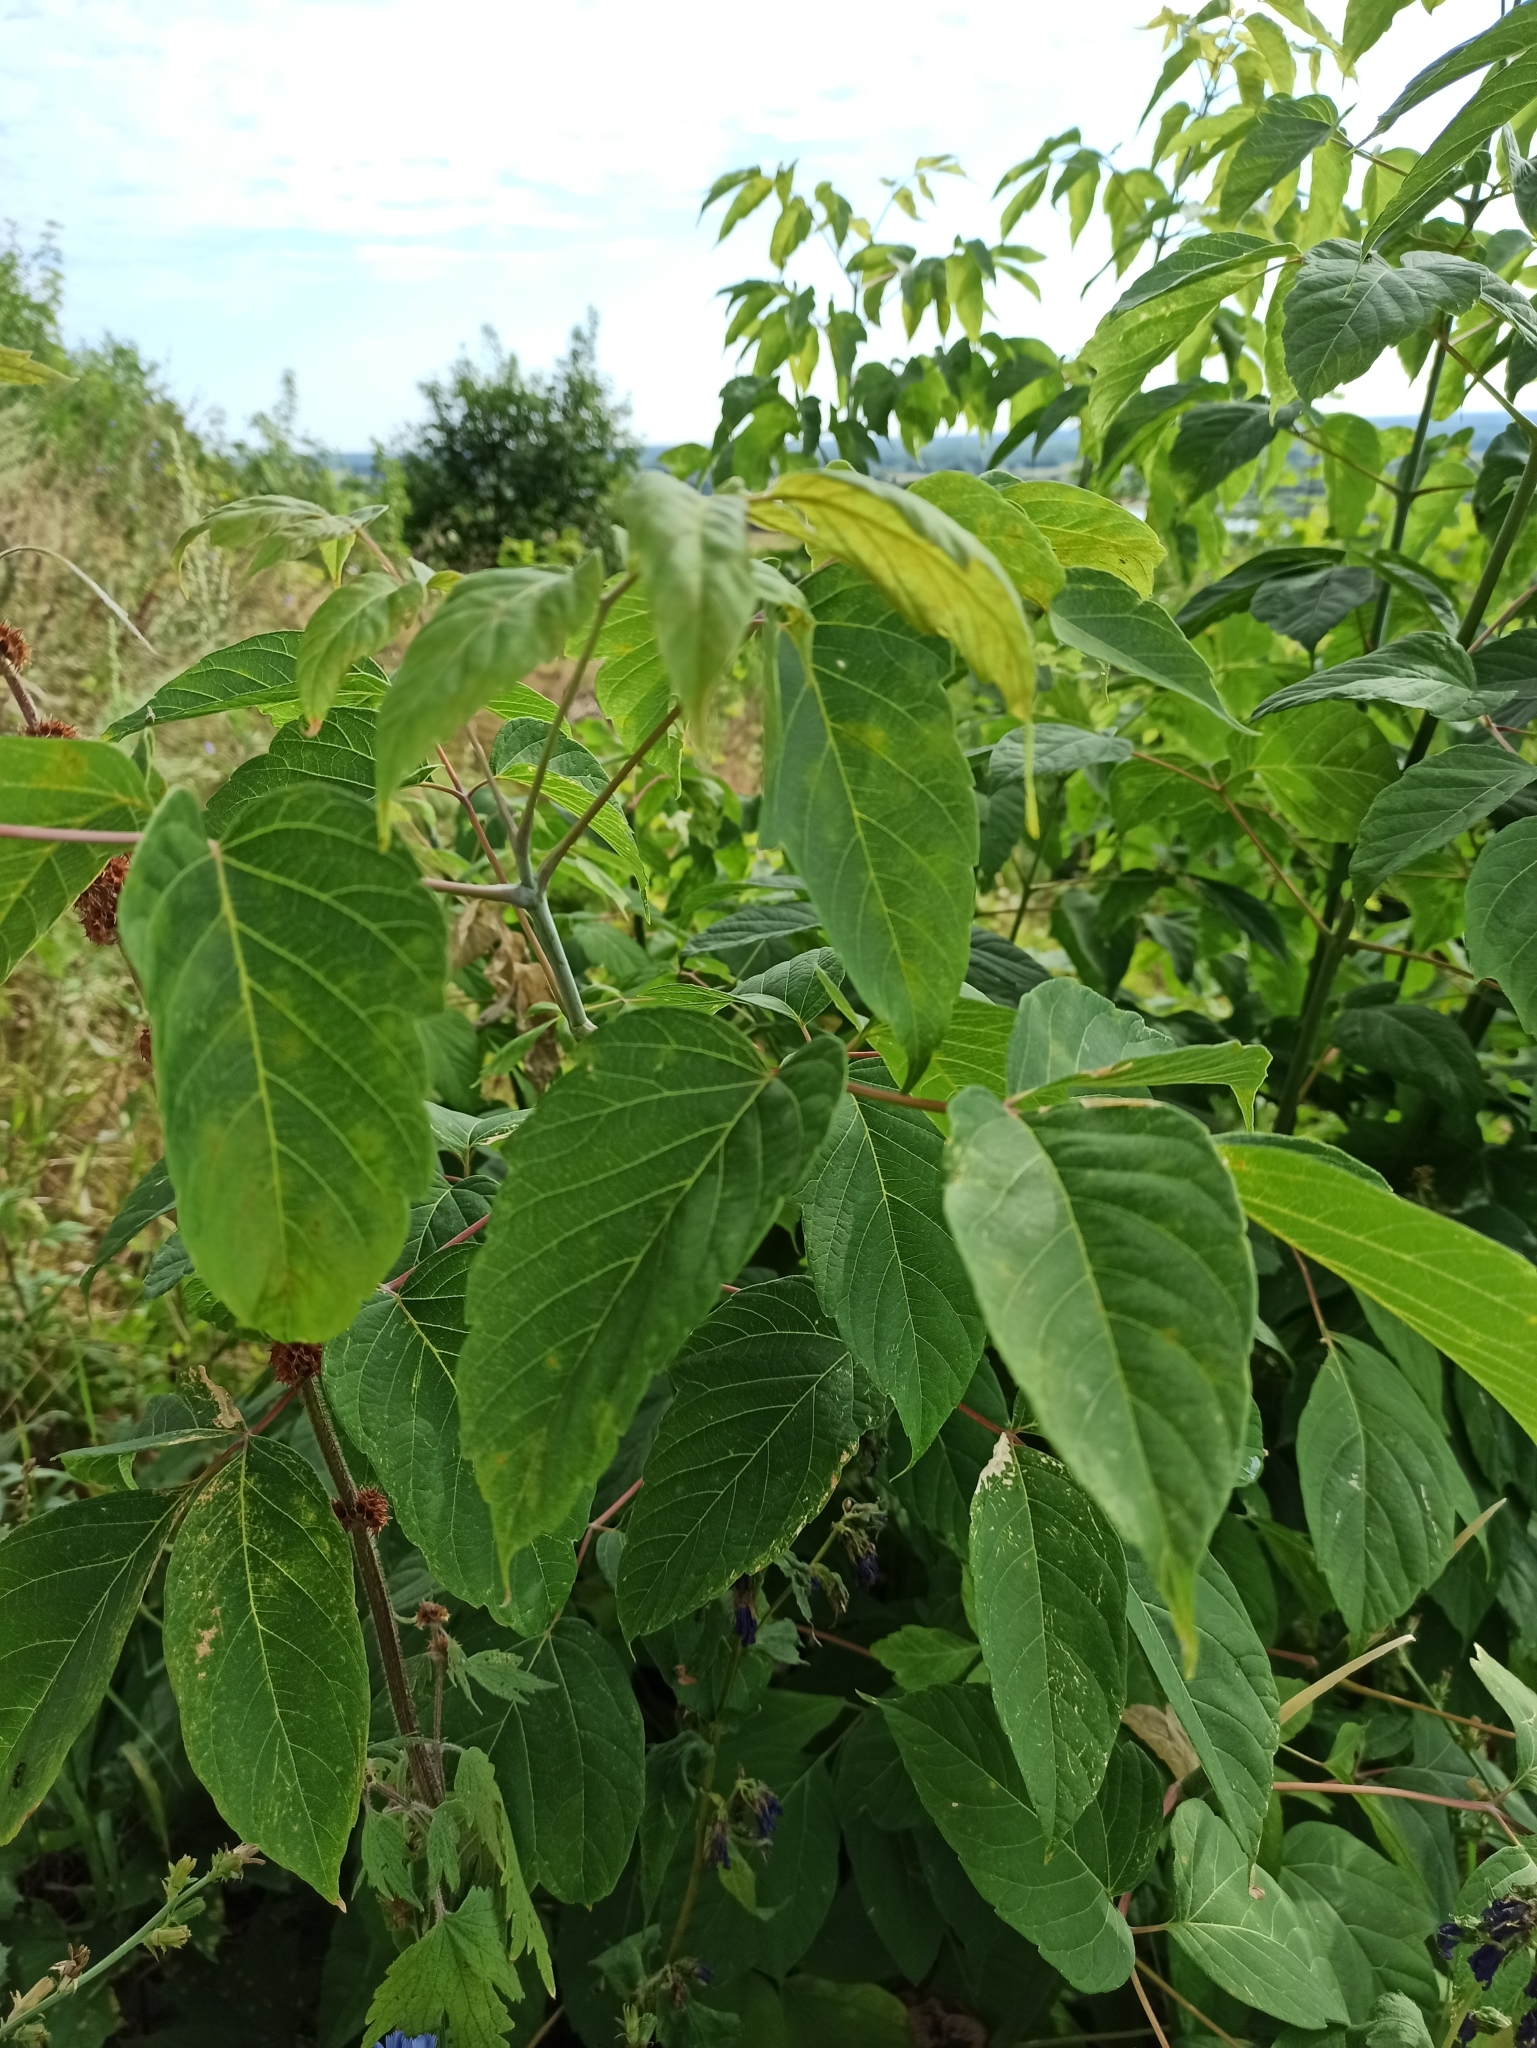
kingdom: Plantae
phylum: Tracheophyta
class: Magnoliopsida
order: Sapindales
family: Sapindaceae
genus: Acer
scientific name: Acer negundo
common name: Ashleaf maple
